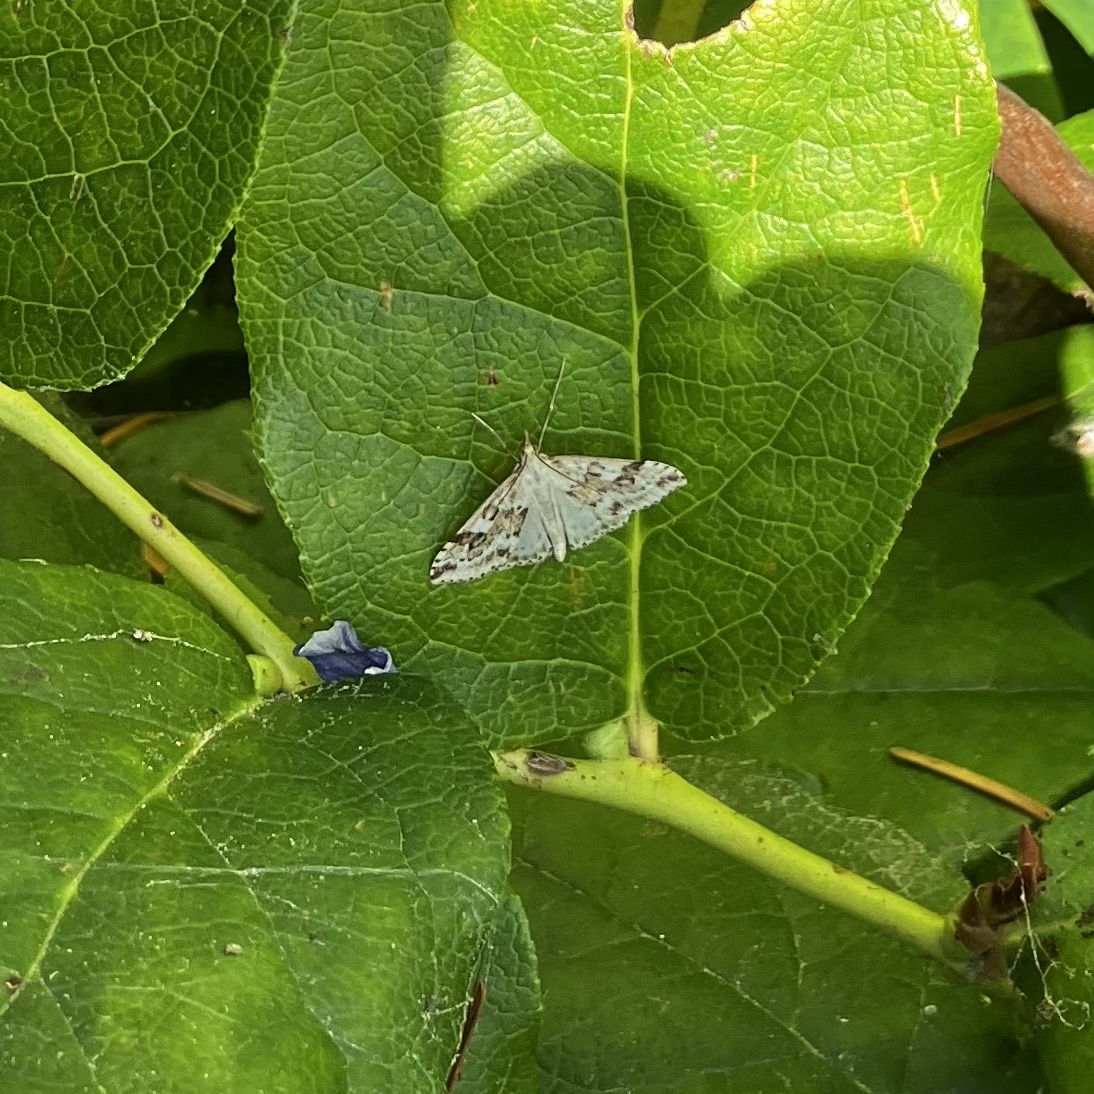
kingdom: Animalia
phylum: Arthropoda
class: Insecta
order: Lepidoptera
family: Crambidae
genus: Udea
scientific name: Udea washingtonalis
